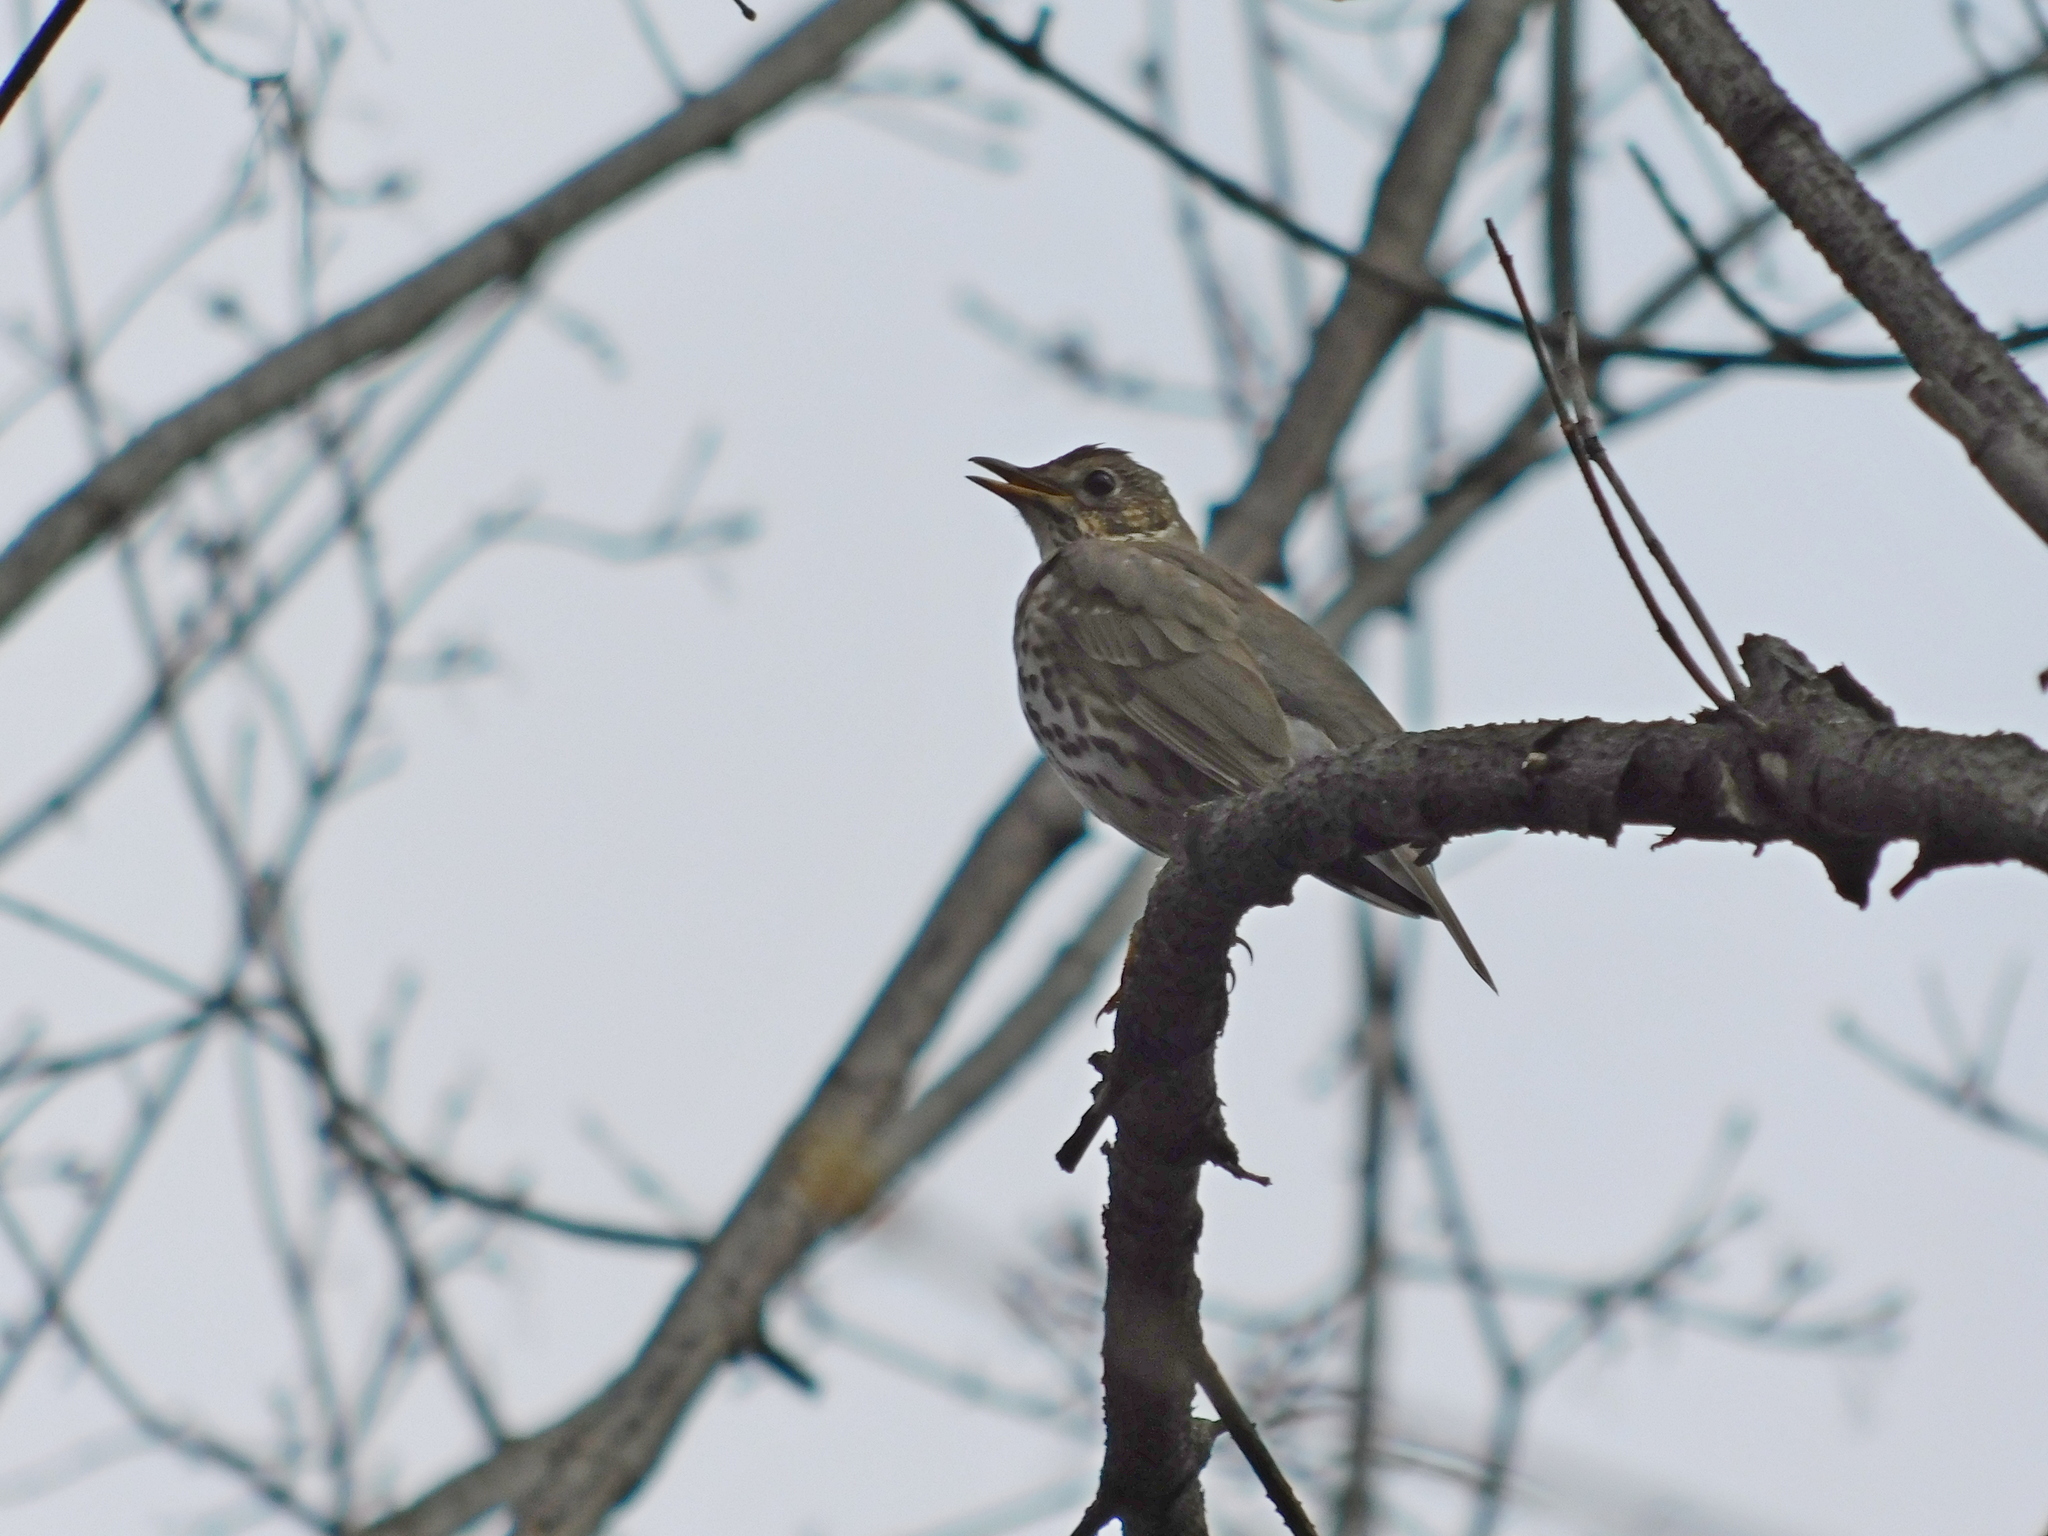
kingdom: Animalia
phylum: Chordata
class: Aves
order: Passeriformes
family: Turdidae
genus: Turdus
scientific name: Turdus philomelos
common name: Song thrush
